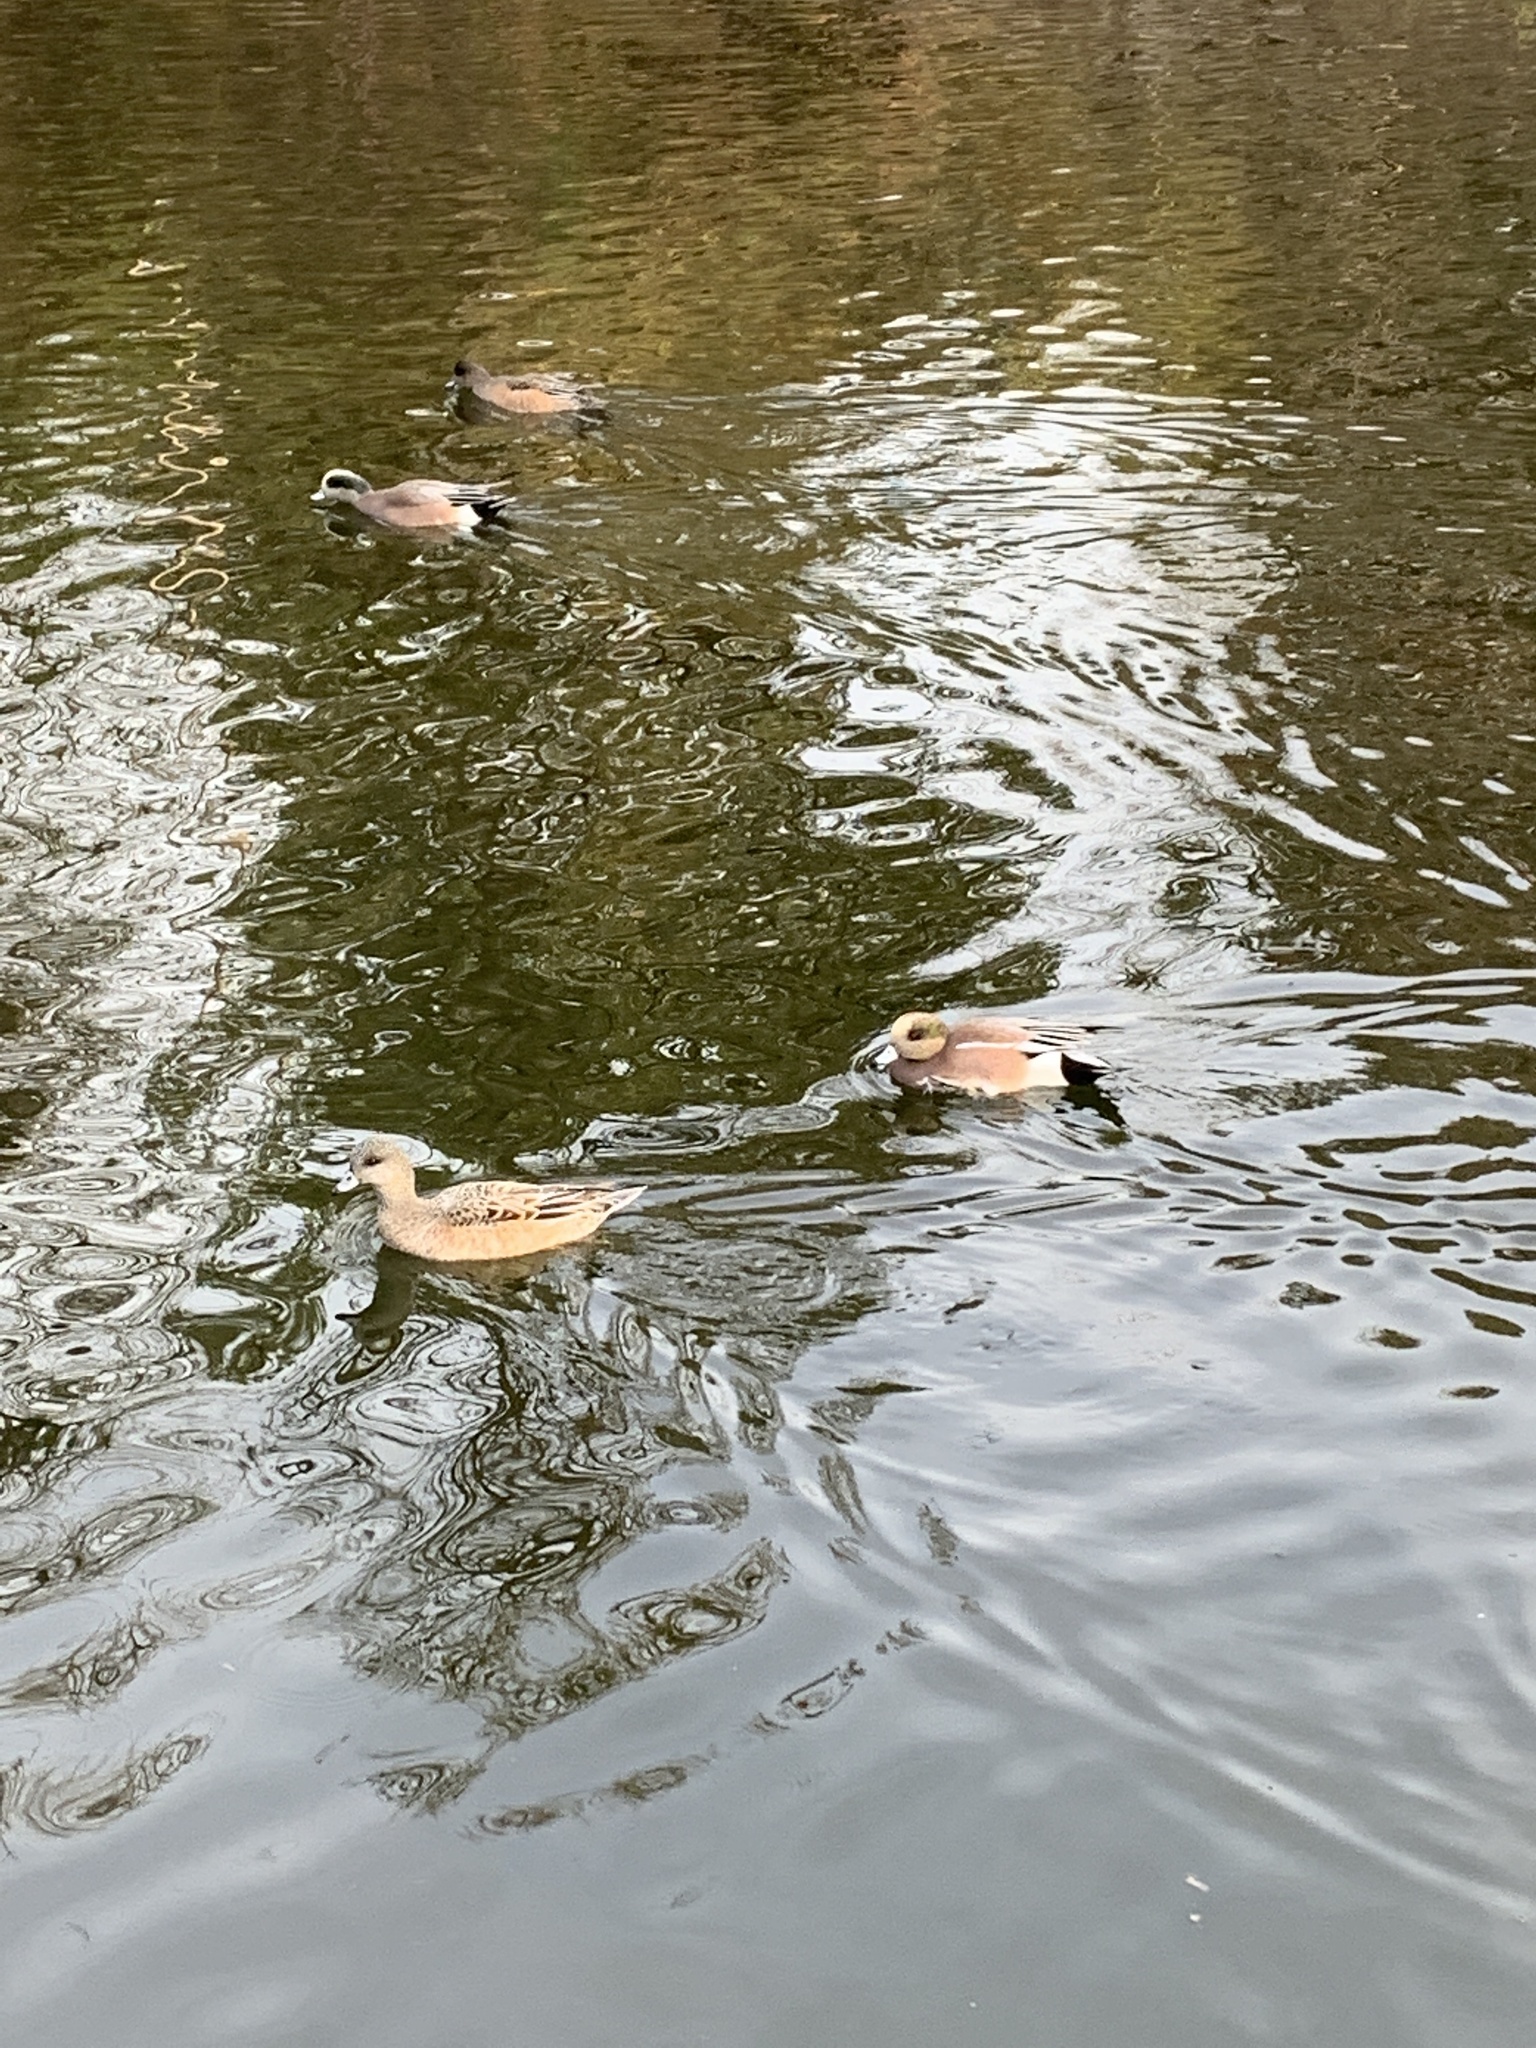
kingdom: Animalia
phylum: Chordata
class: Aves
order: Anseriformes
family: Anatidae
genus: Mareca
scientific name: Mareca americana
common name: American wigeon
